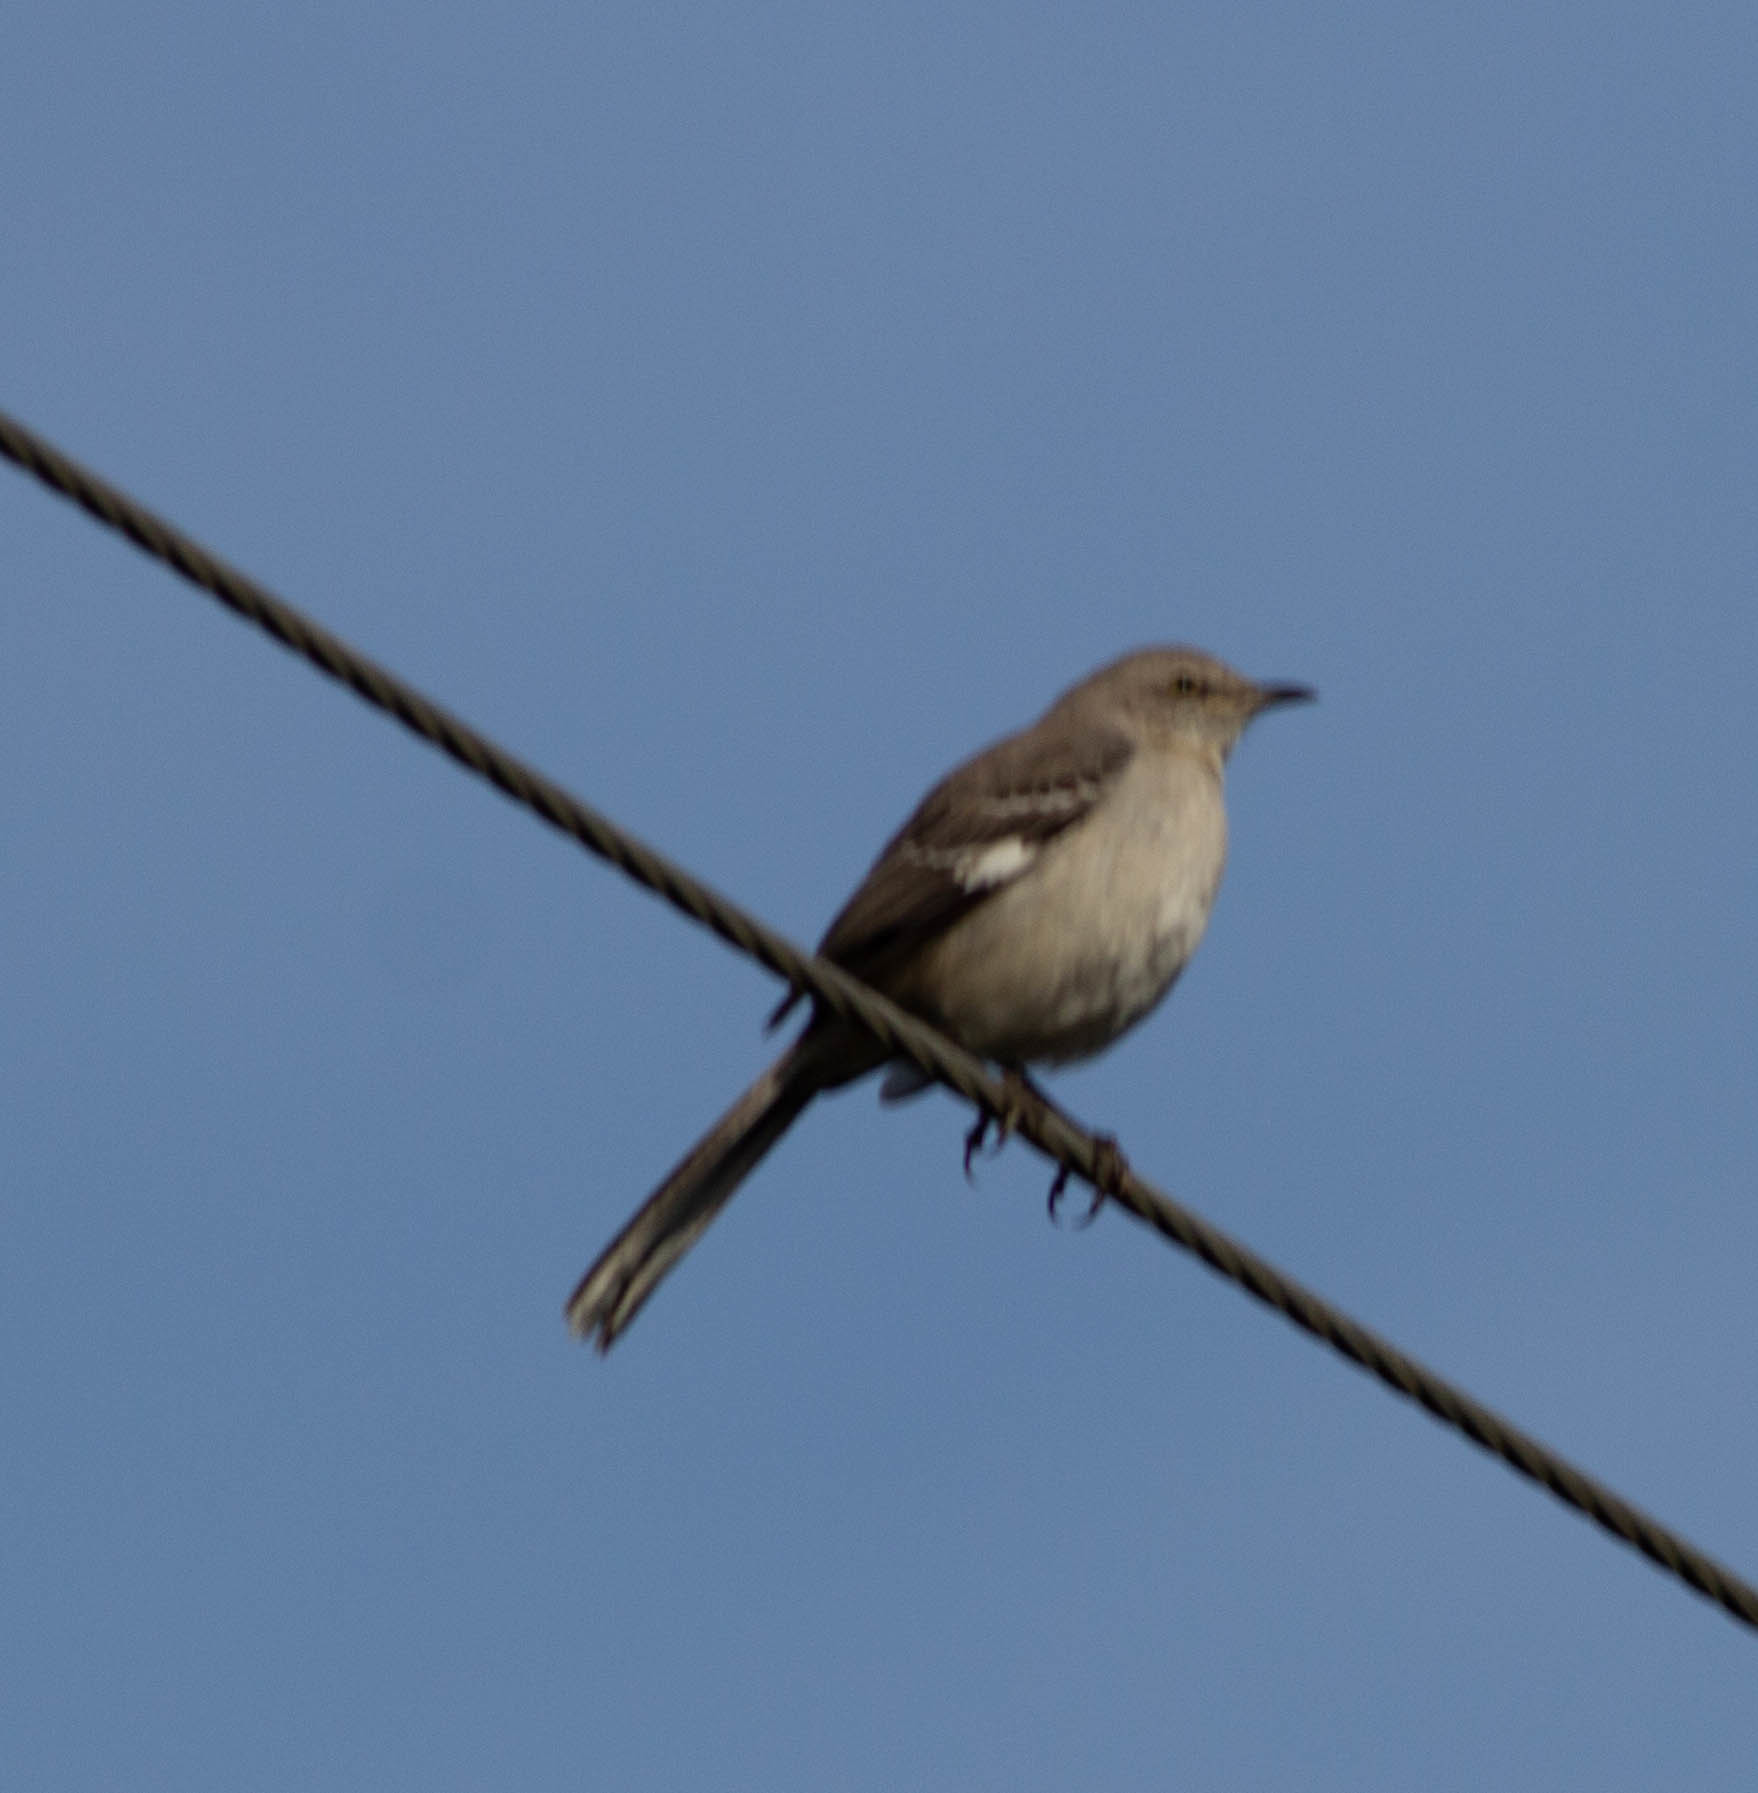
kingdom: Animalia
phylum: Chordata
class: Aves
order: Passeriformes
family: Mimidae
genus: Mimus
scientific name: Mimus polyglottos
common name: Northern mockingbird
